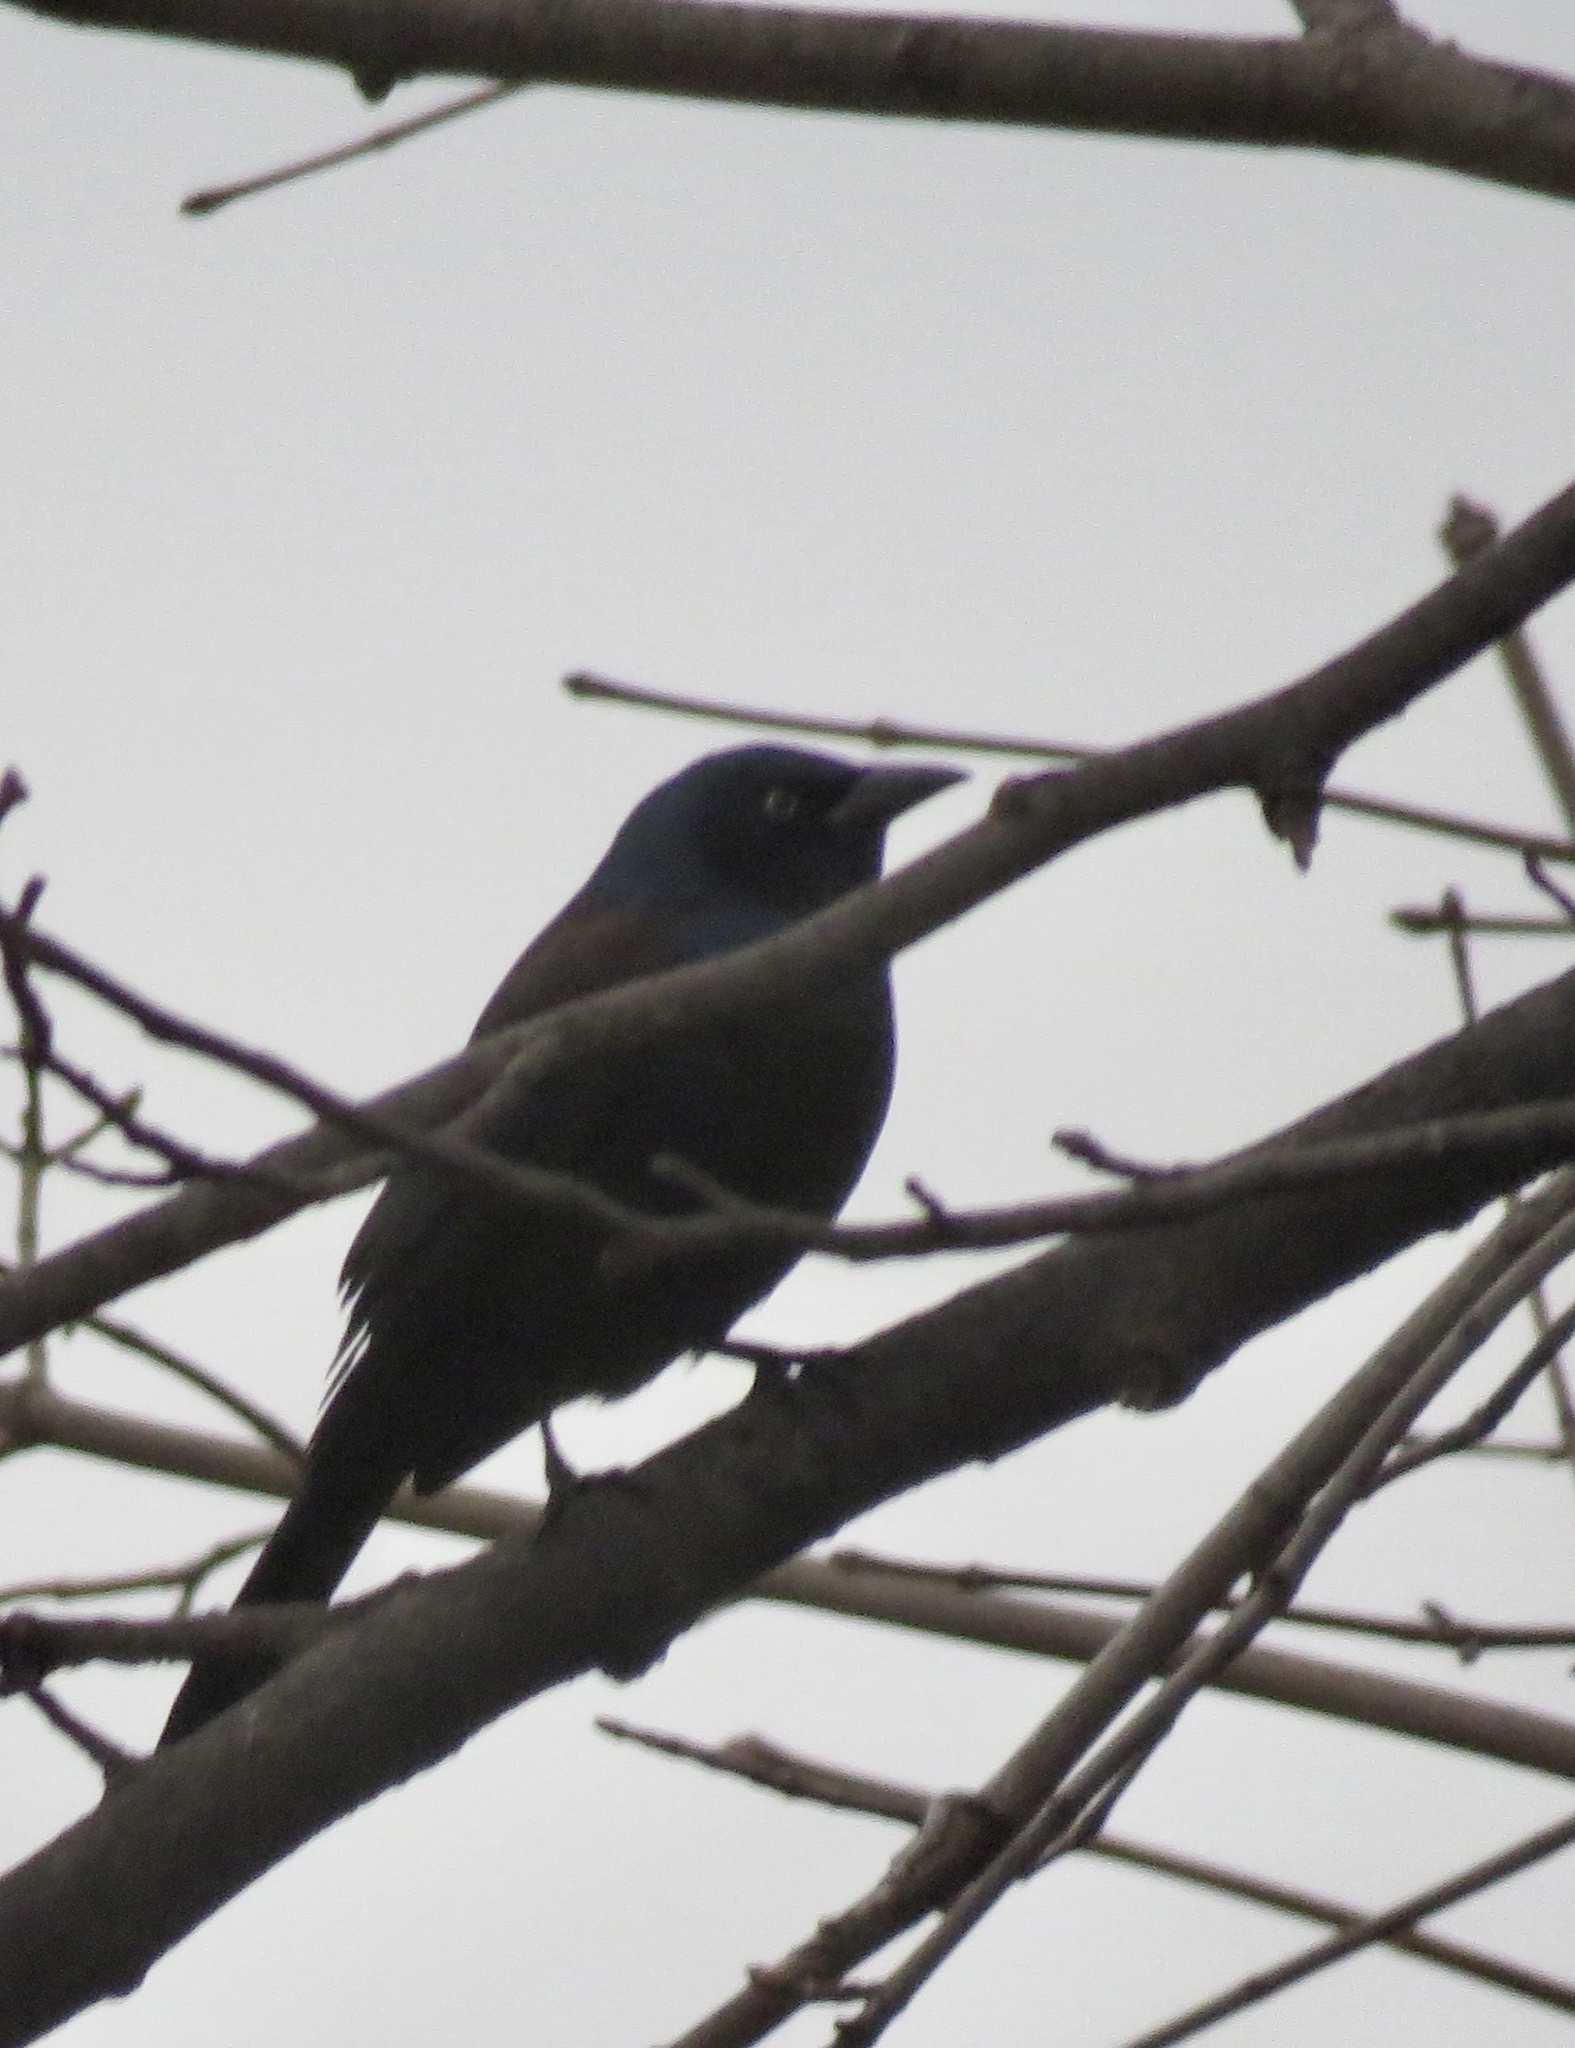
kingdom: Animalia
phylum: Chordata
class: Aves
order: Passeriformes
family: Icteridae
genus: Quiscalus
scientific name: Quiscalus quiscula
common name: Common grackle
